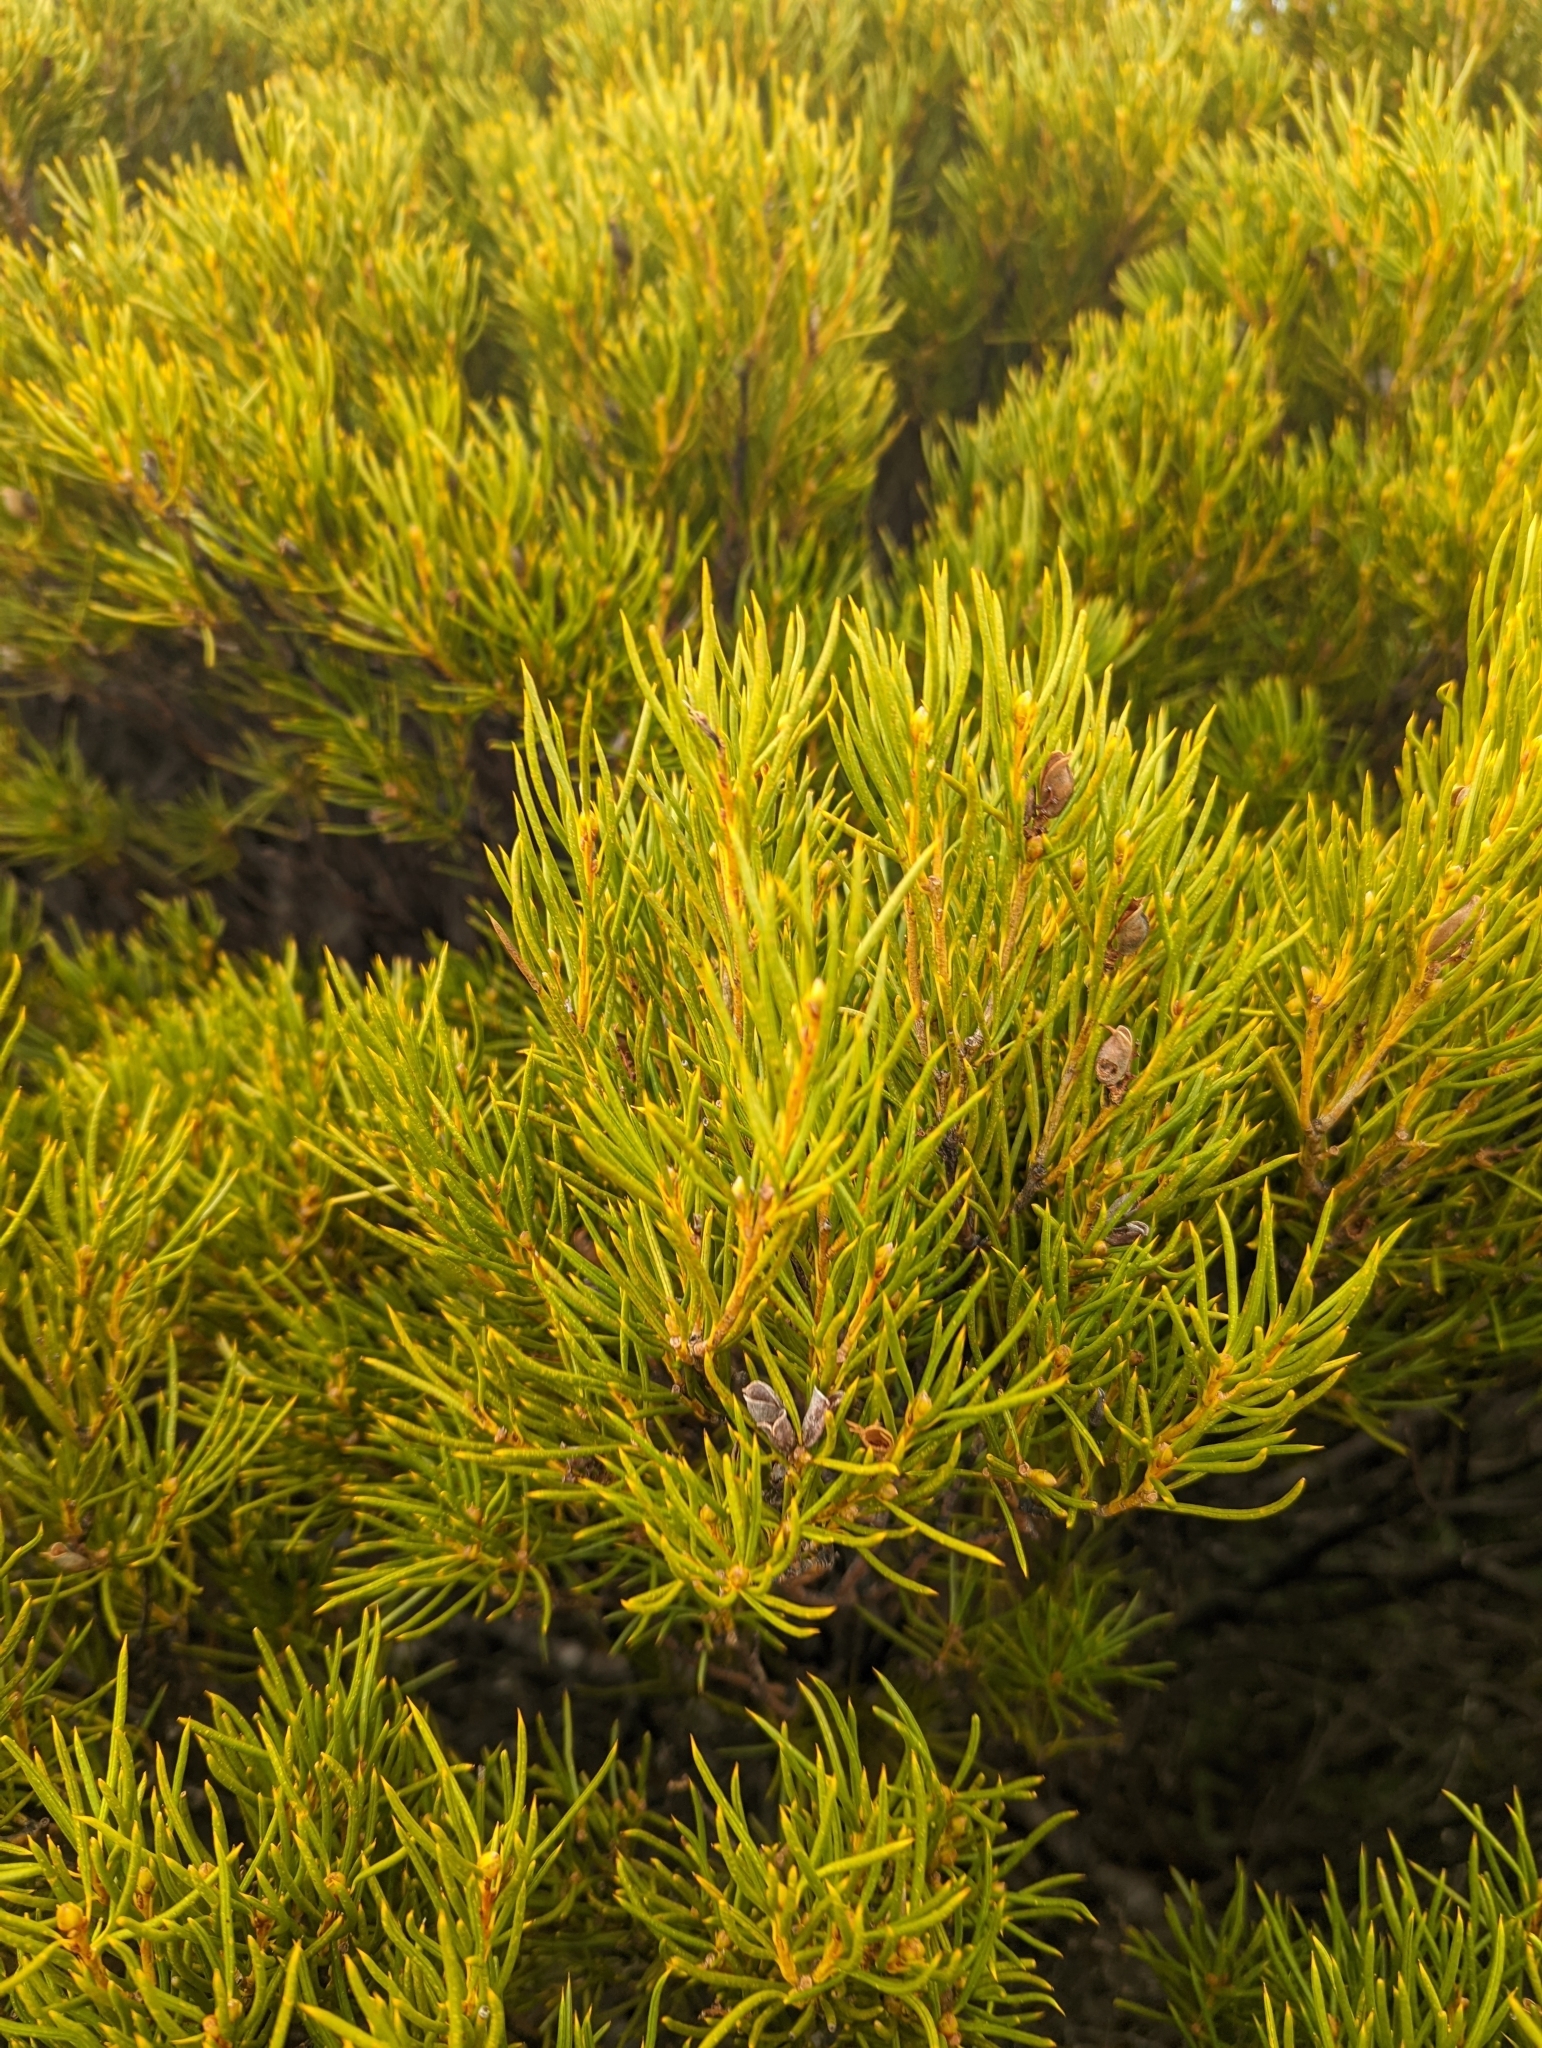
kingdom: Plantae
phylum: Tracheophyta
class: Magnoliopsida
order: Proteales
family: Proteaceae
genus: Orites
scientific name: Orites acicularis
